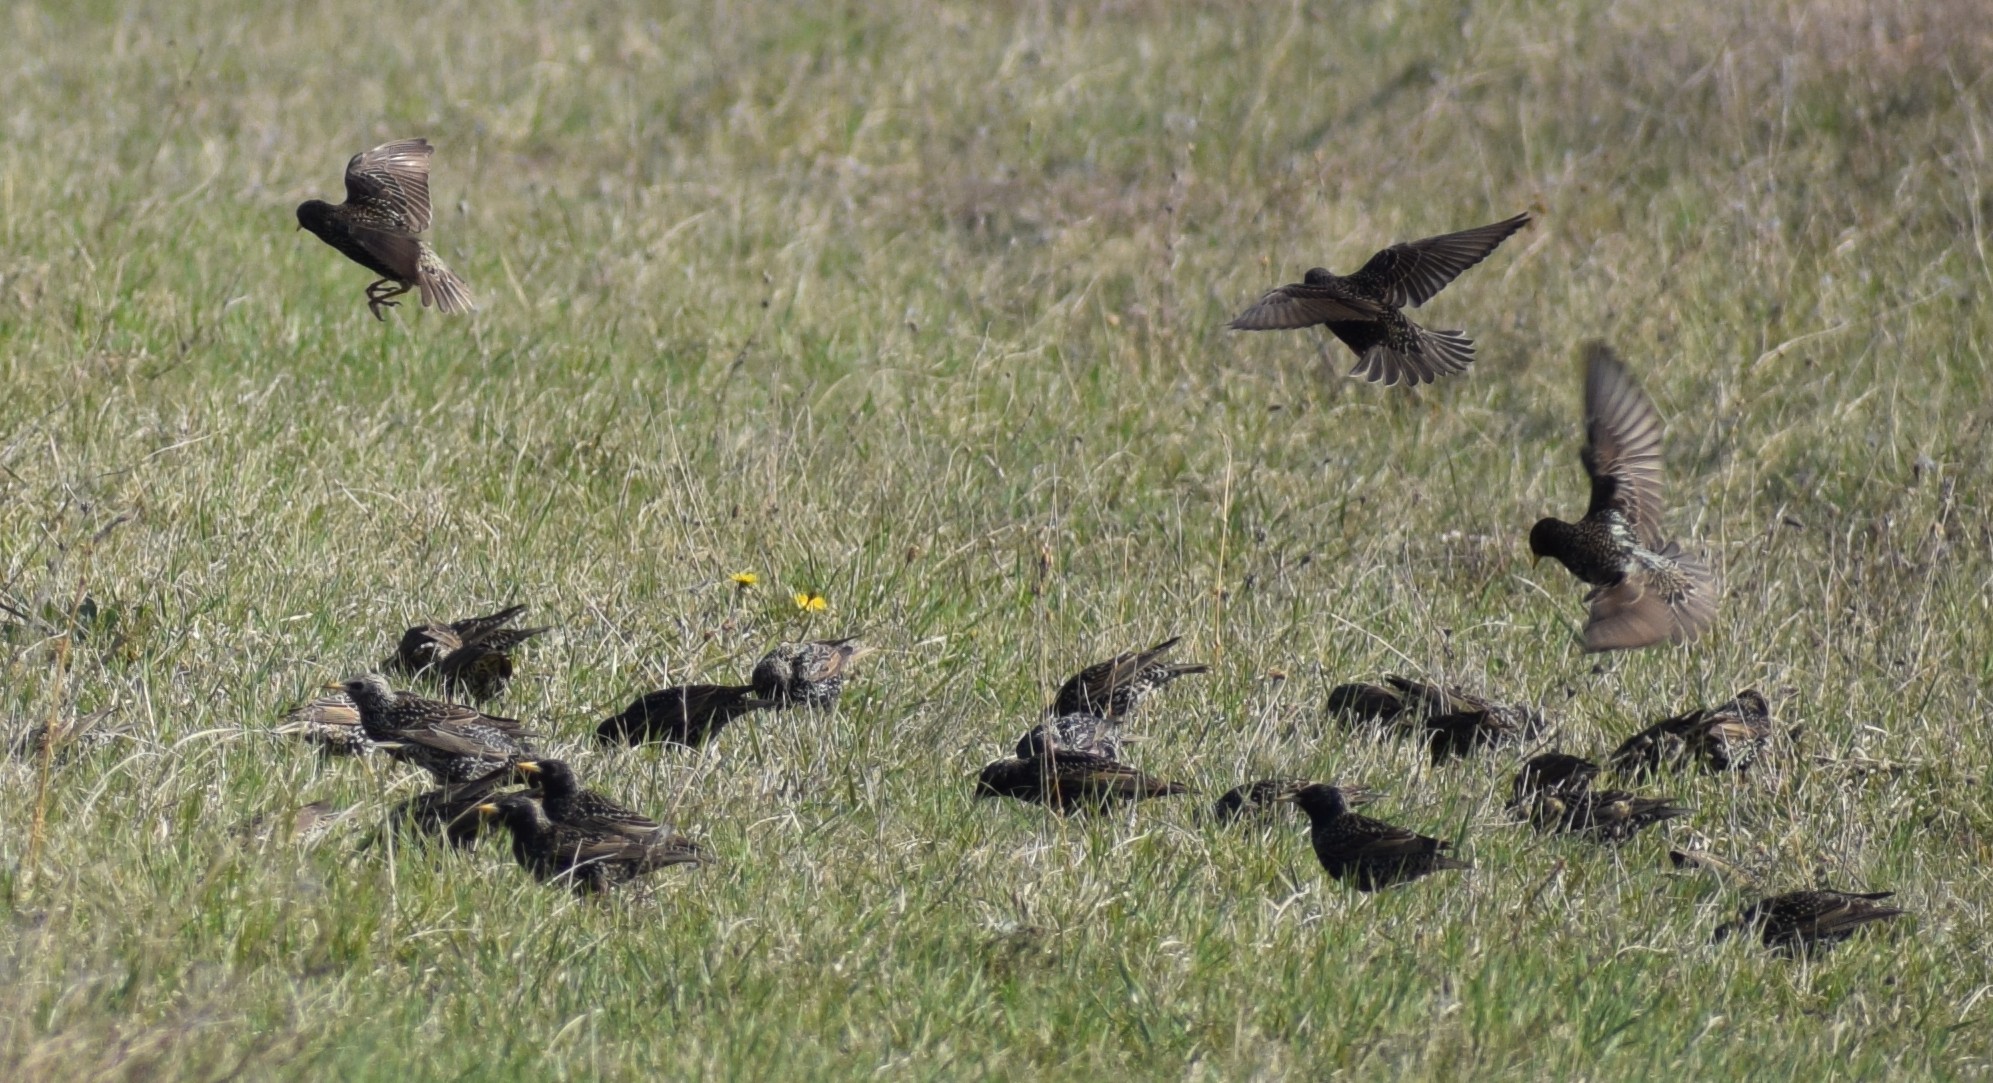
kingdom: Animalia
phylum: Chordata
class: Aves
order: Passeriformes
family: Sturnidae
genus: Sturnus
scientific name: Sturnus vulgaris
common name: Common starling
